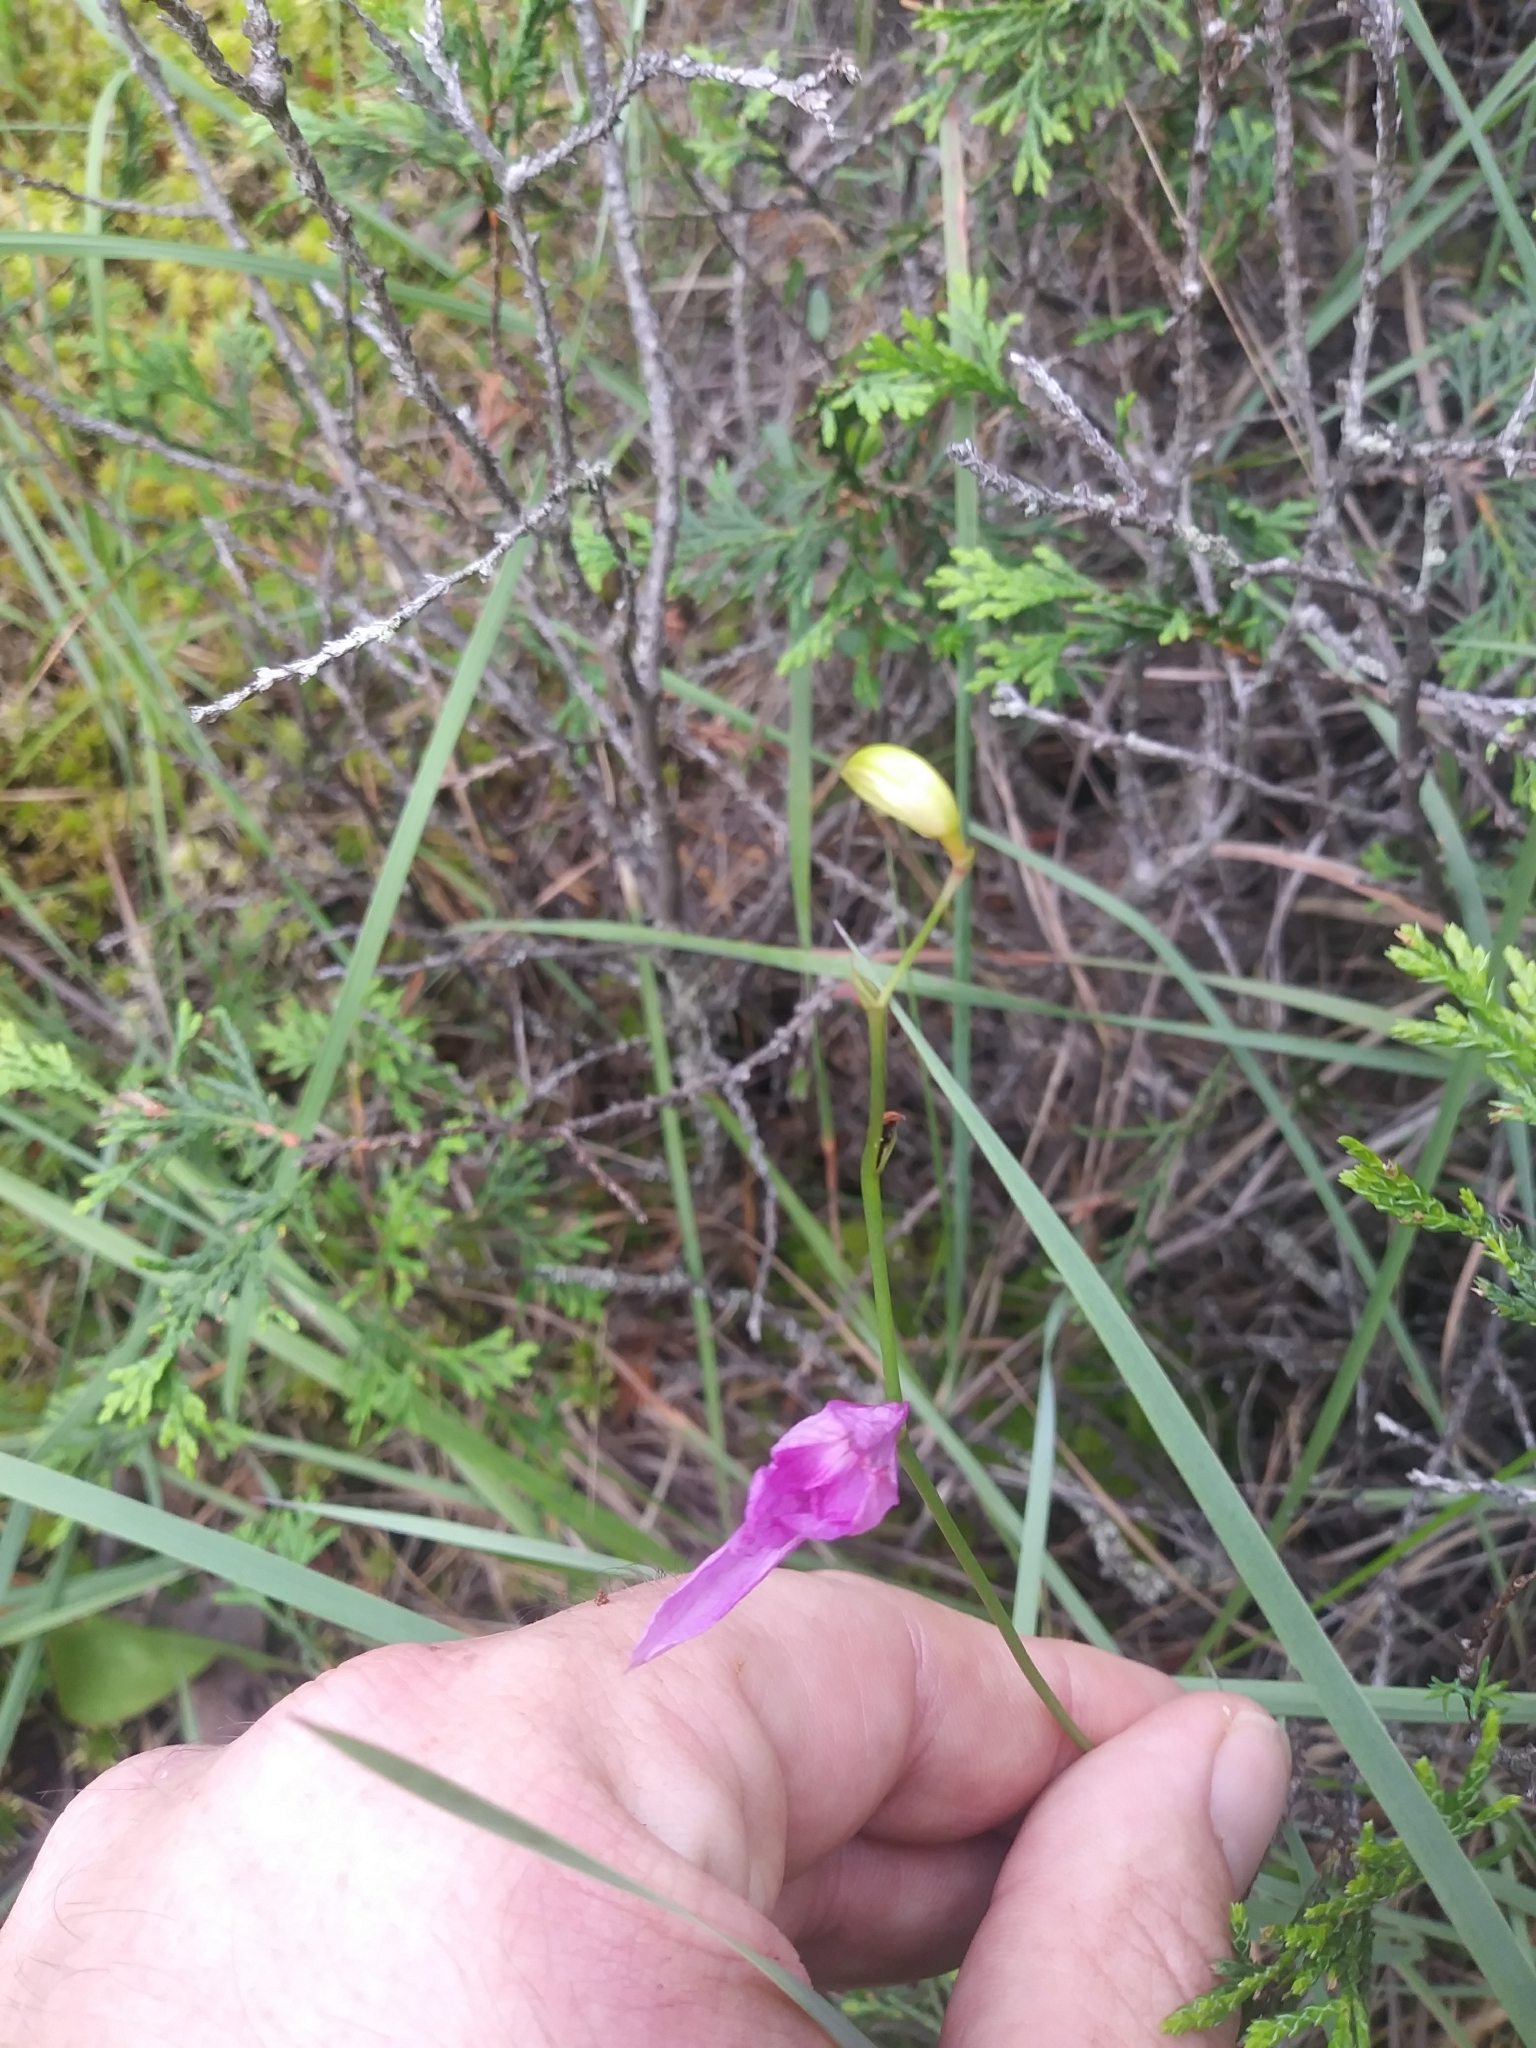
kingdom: Plantae
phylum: Tracheophyta
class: Liliopsida
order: Asparagales
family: Orchidaceae
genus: Calopogon
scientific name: Calopogon tuberosus
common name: Grass-pink
